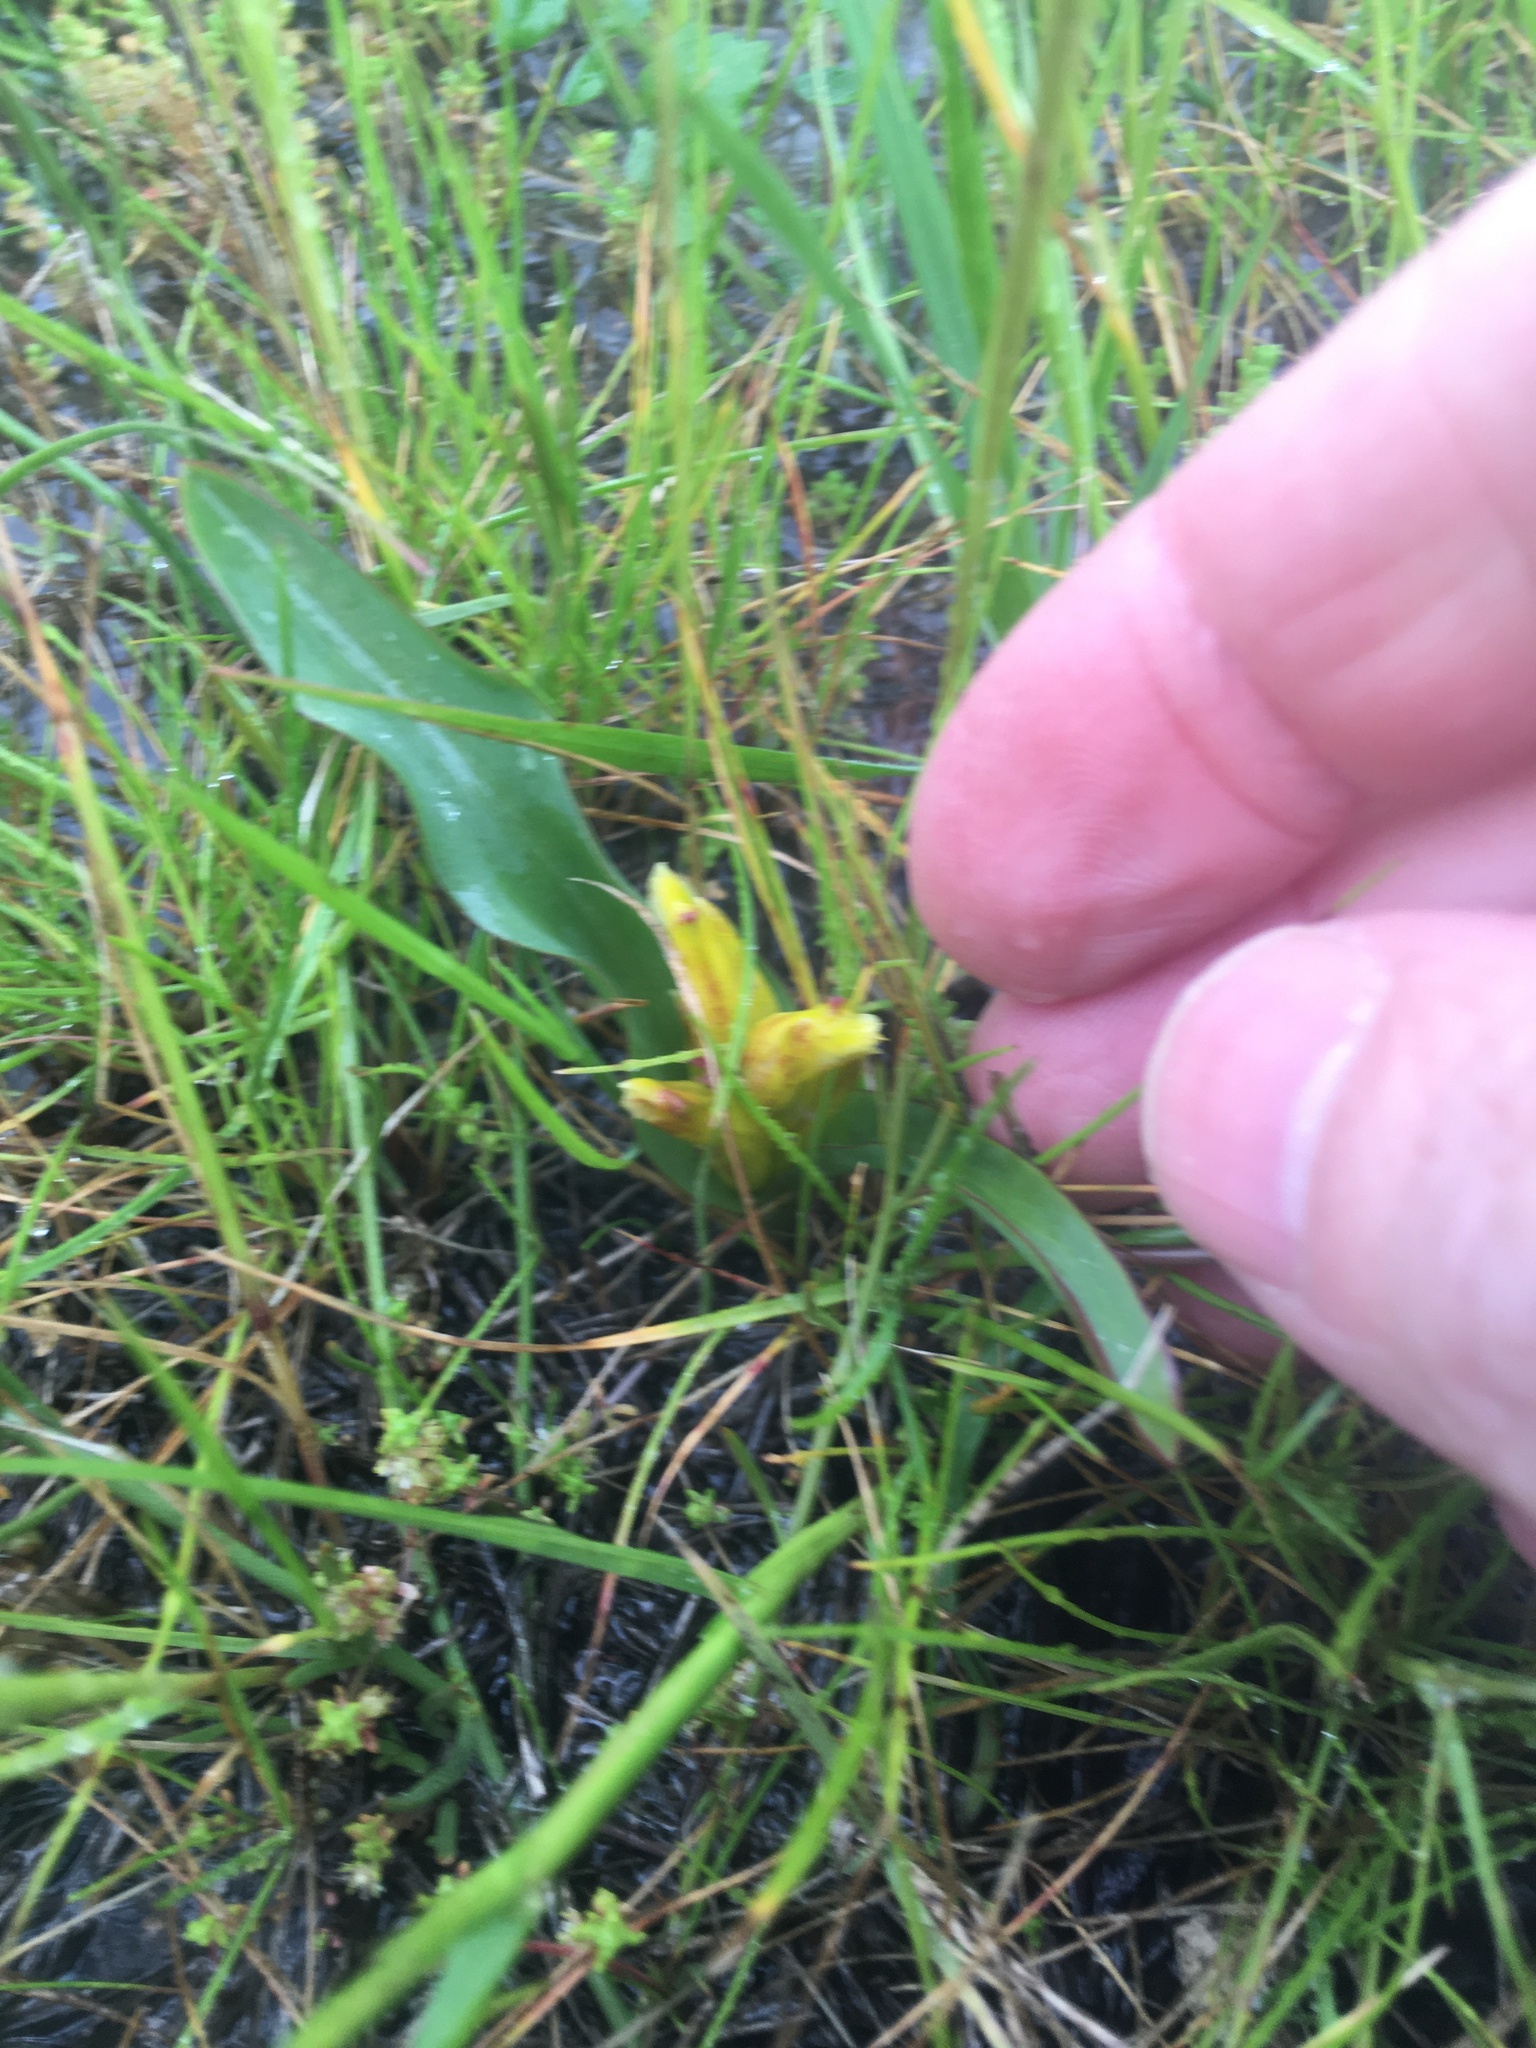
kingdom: Plantae
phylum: Tracheophyta
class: Liliopsida
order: Asparagales
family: Asparagaceae
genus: Lachenalia
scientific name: Lachenalia reflexa
